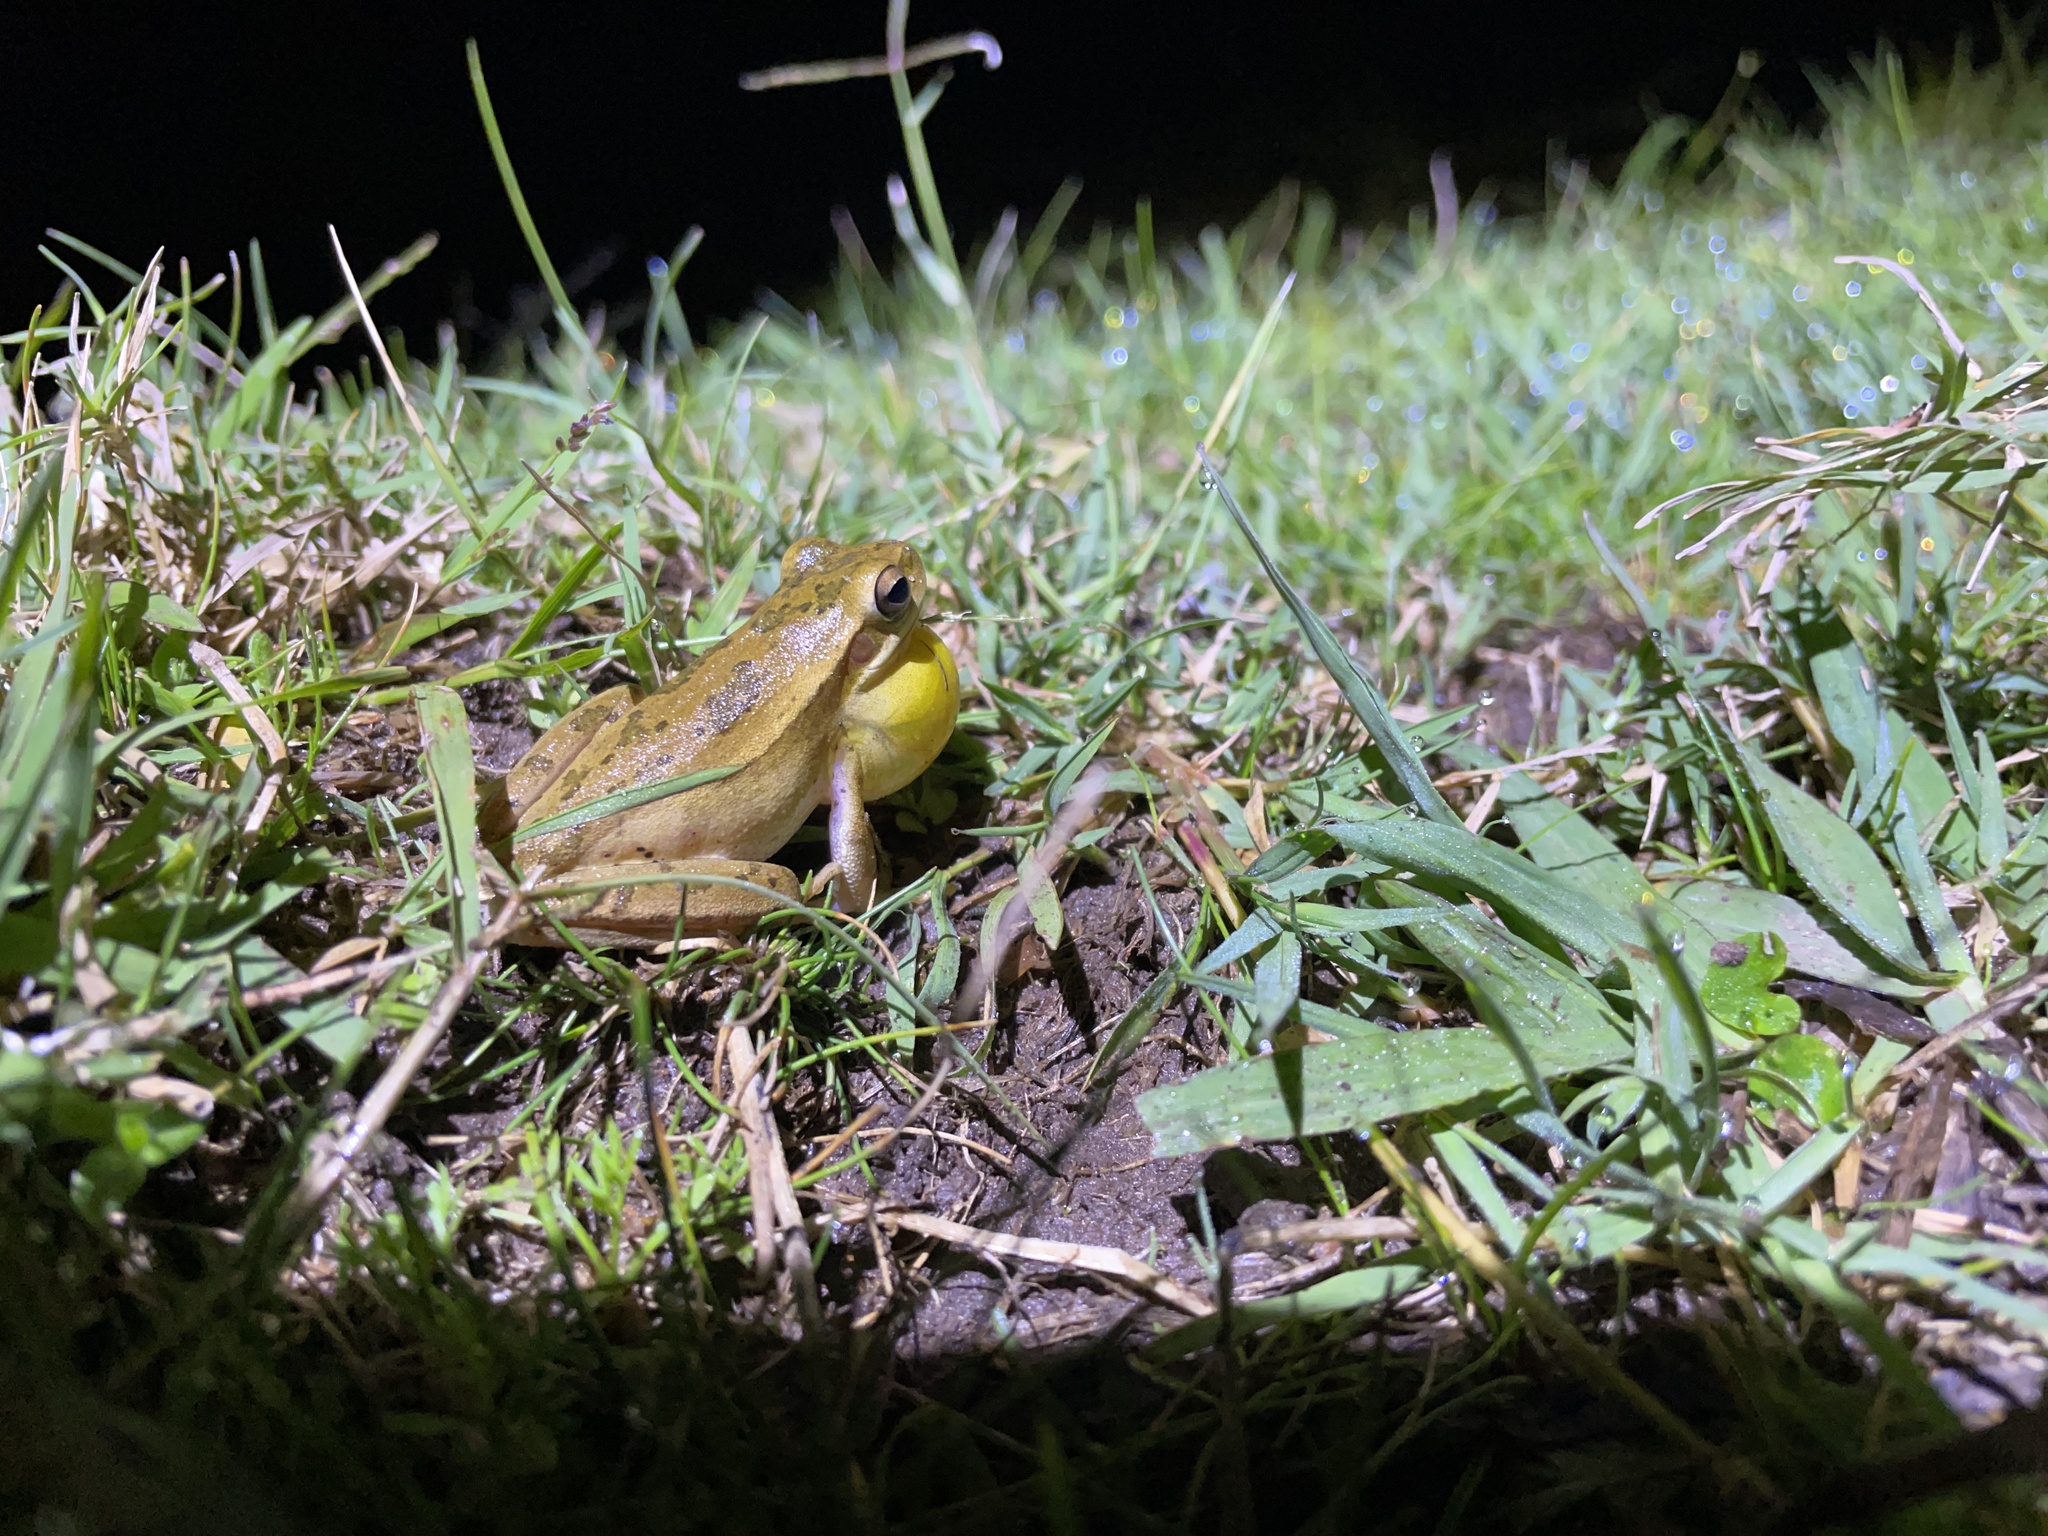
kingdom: Animalia
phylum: Chordata
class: Amphibia
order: Anura
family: Hylidae
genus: Boana
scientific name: Boana pulchella
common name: Montevideo treefrog
